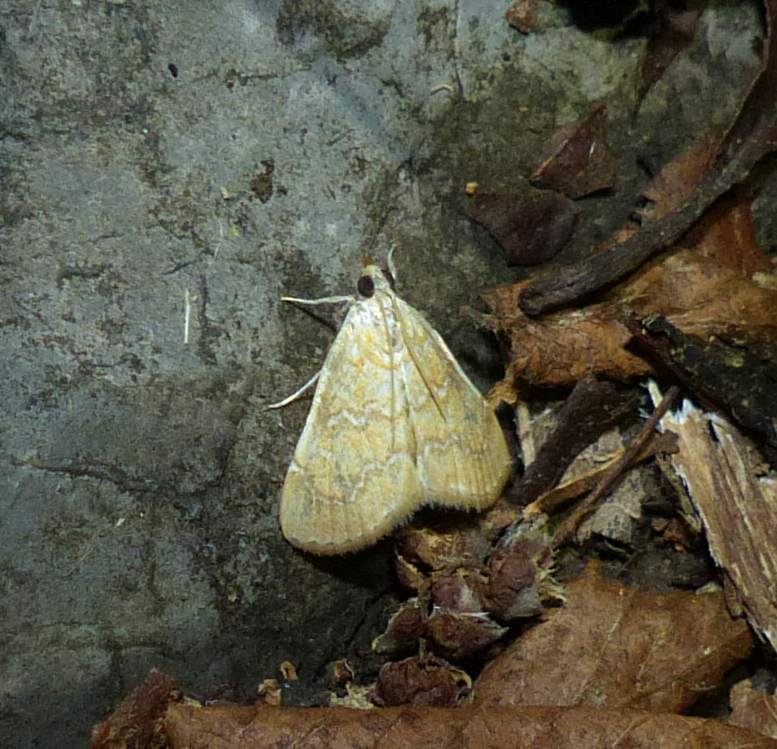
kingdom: Animalia
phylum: Arthropoda
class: Insecta
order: Lepidoptera
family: Crambidae
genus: Glaphyria
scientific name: Glaphyria sesquistrialis
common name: White-roped glaphyria
